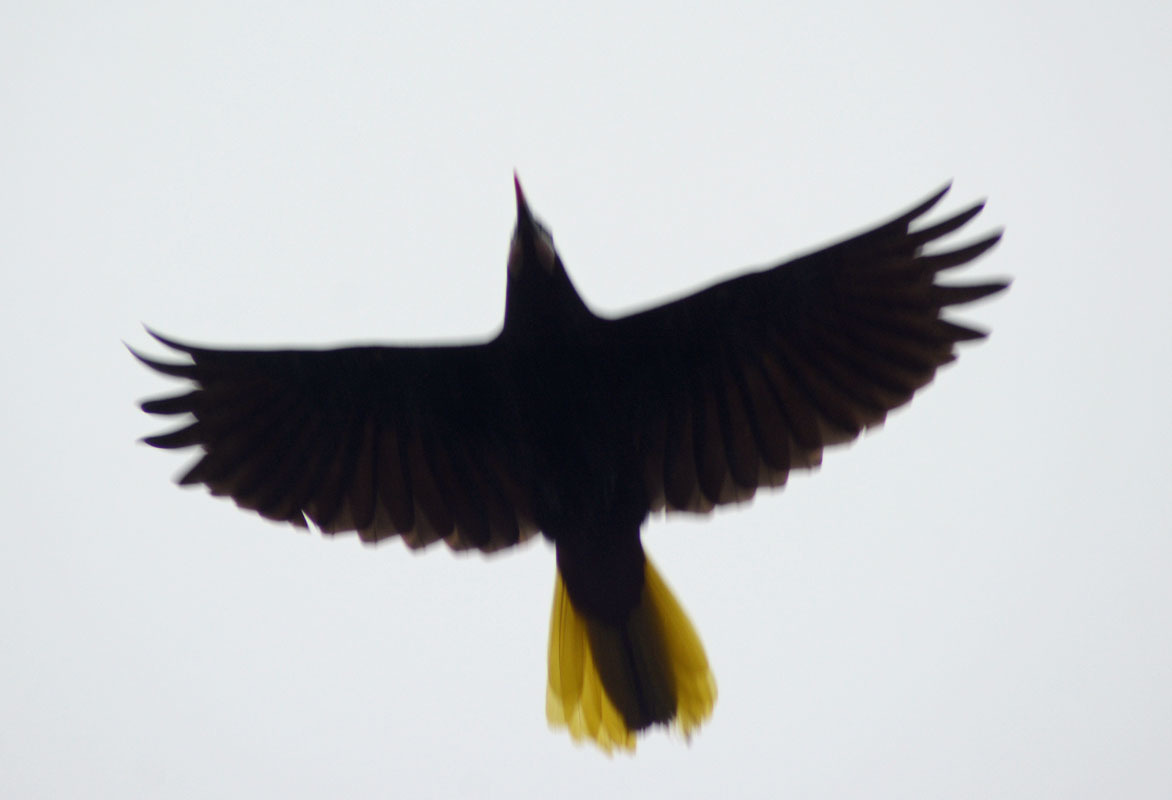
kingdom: Animalia
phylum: Chordata
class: Aves
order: Passeriformes
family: Icteridae
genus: Psarocolius
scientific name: Psarocolius montezuma
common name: Montezuma oropendola
